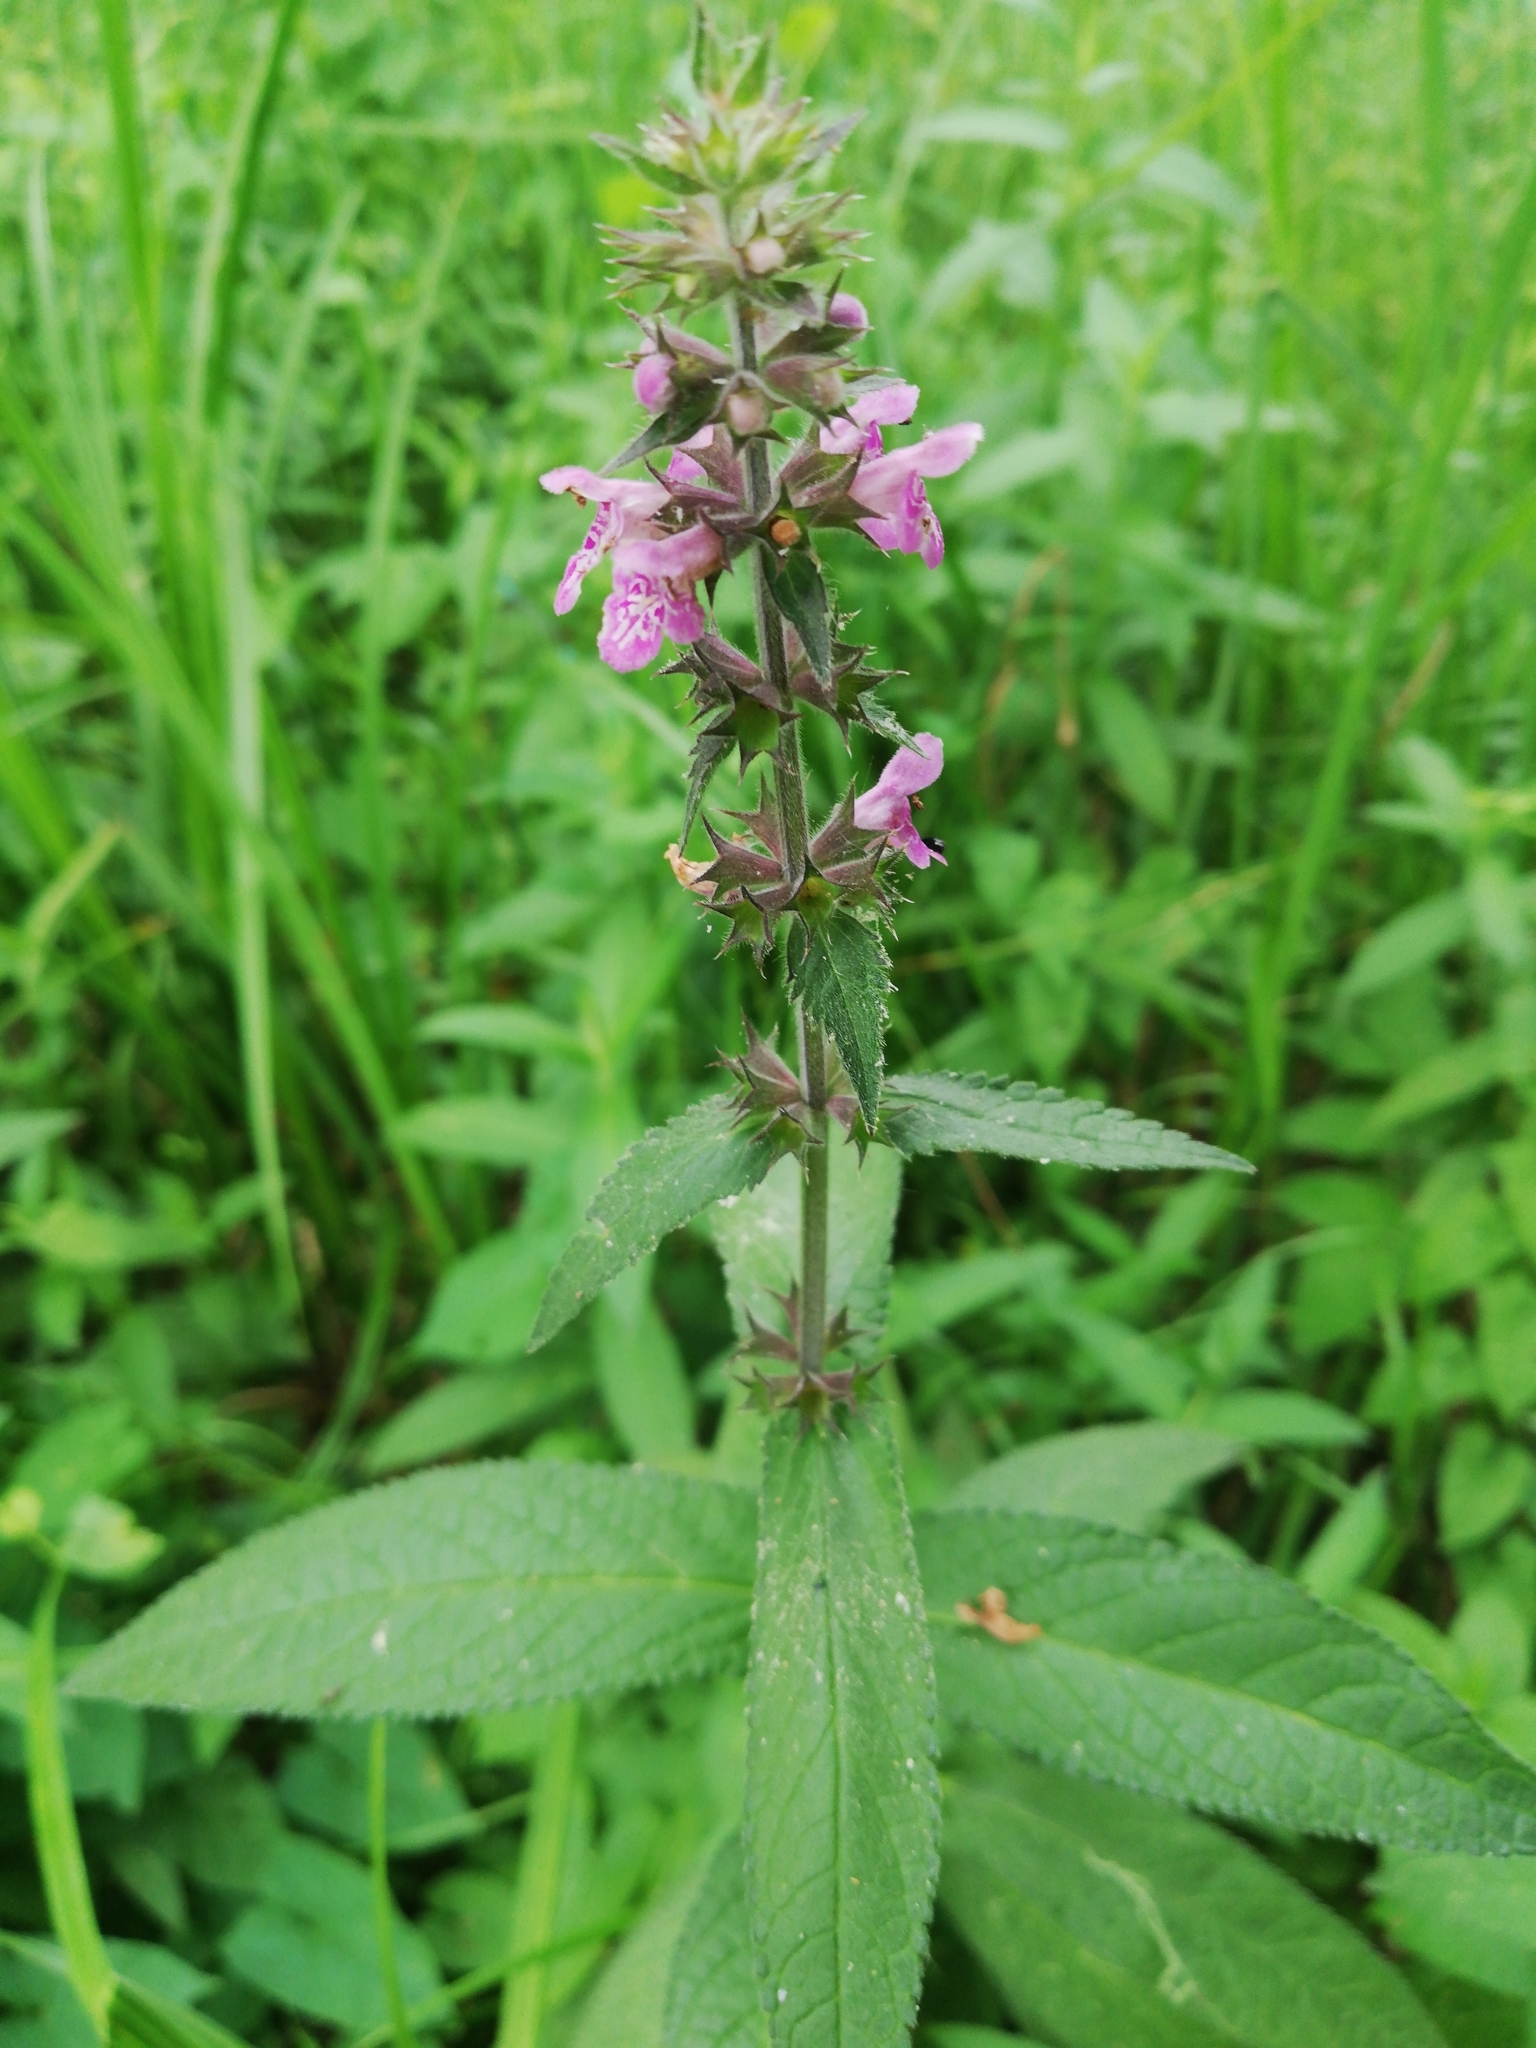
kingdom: Plantae
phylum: Tracheophyta
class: Magnoliopsida
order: Lamiales
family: Lamiaceae
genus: Stachys
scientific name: Stachys palustris
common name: Marsh woundwort
